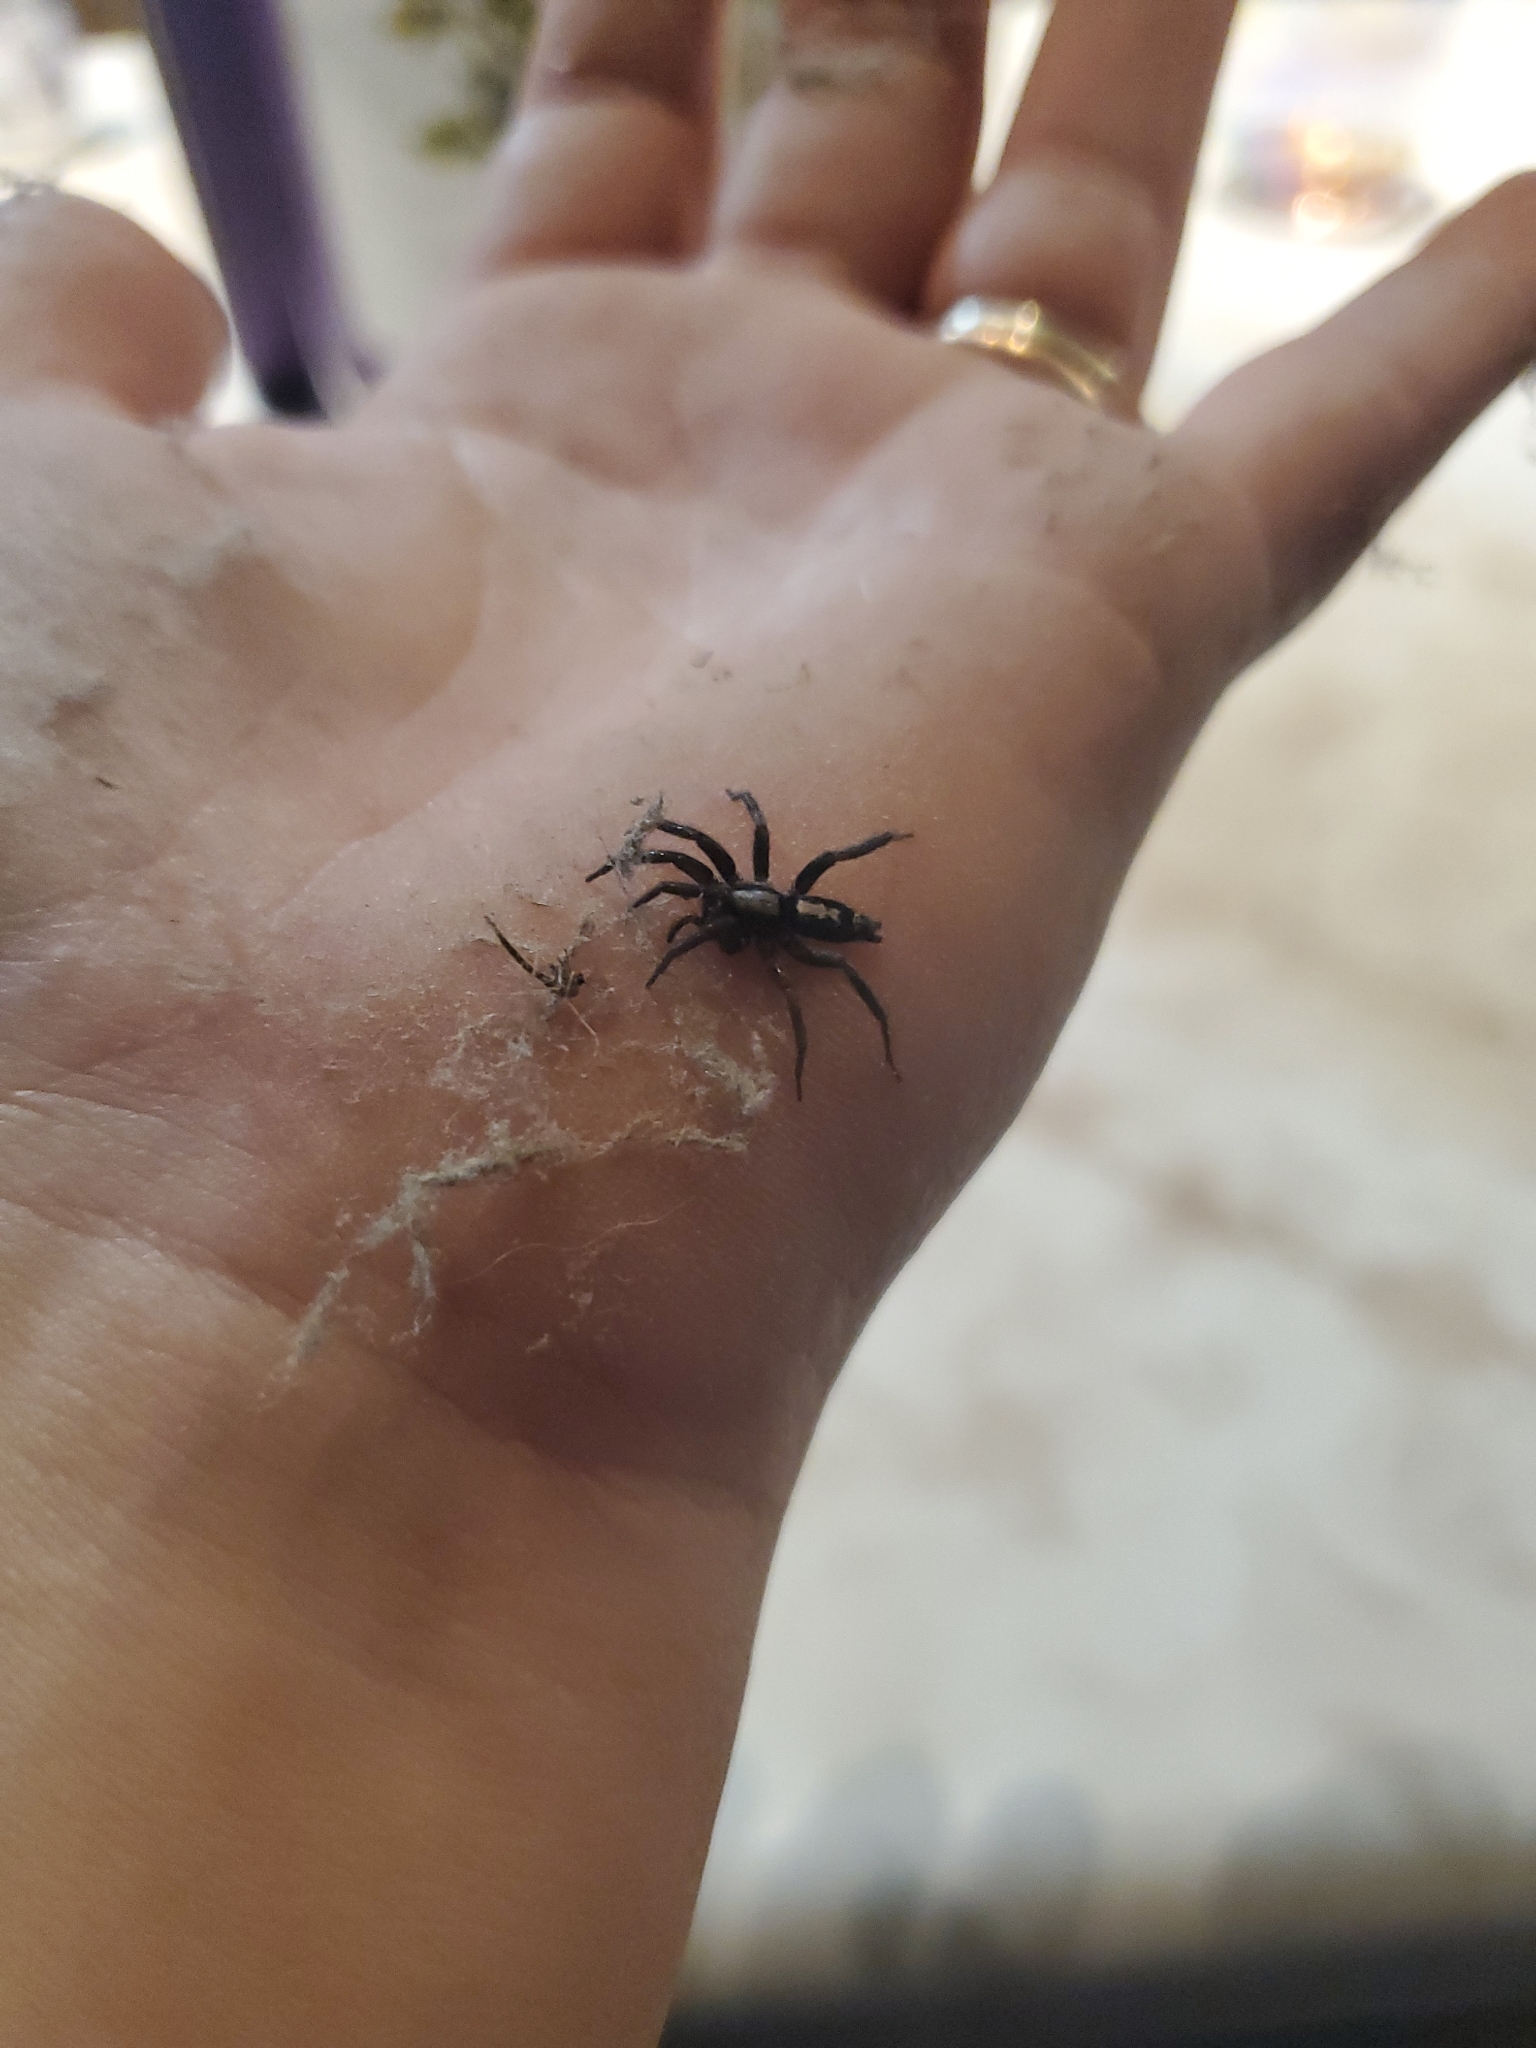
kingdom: Animalia
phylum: Arthropoda
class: Arachnida
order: Araneae
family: Gnaphosidae
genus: Herpyllus
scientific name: Herpyllus ecclesiasticus
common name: Eastern parson spider
